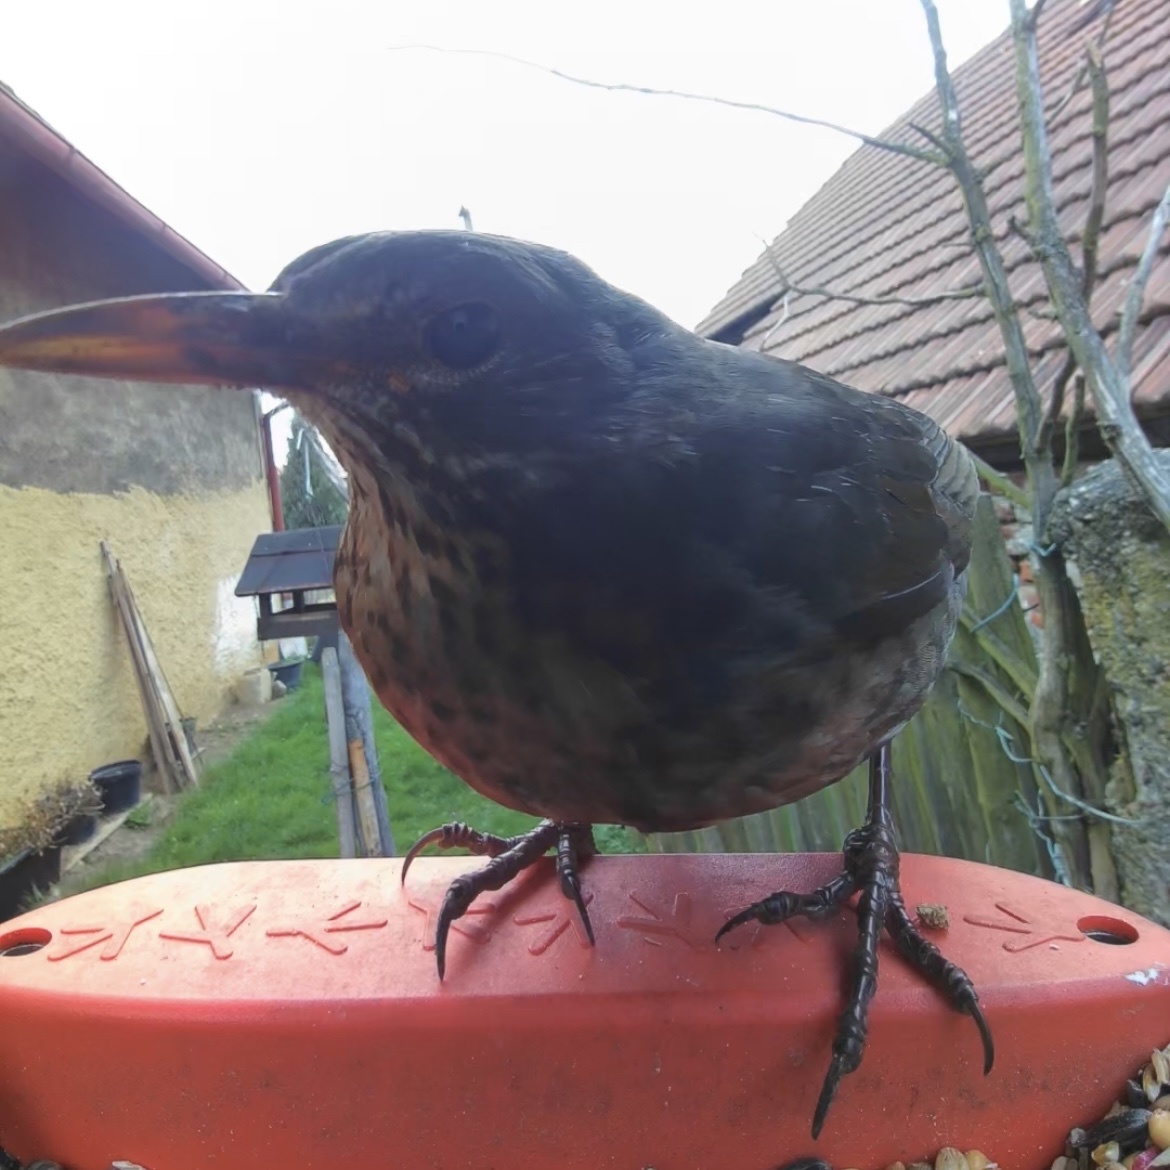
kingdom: Animalia
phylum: Chordata
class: Aves
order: Passeriformes
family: Turdidae
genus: Turdus
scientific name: Turdus merula
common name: Common blackbird
